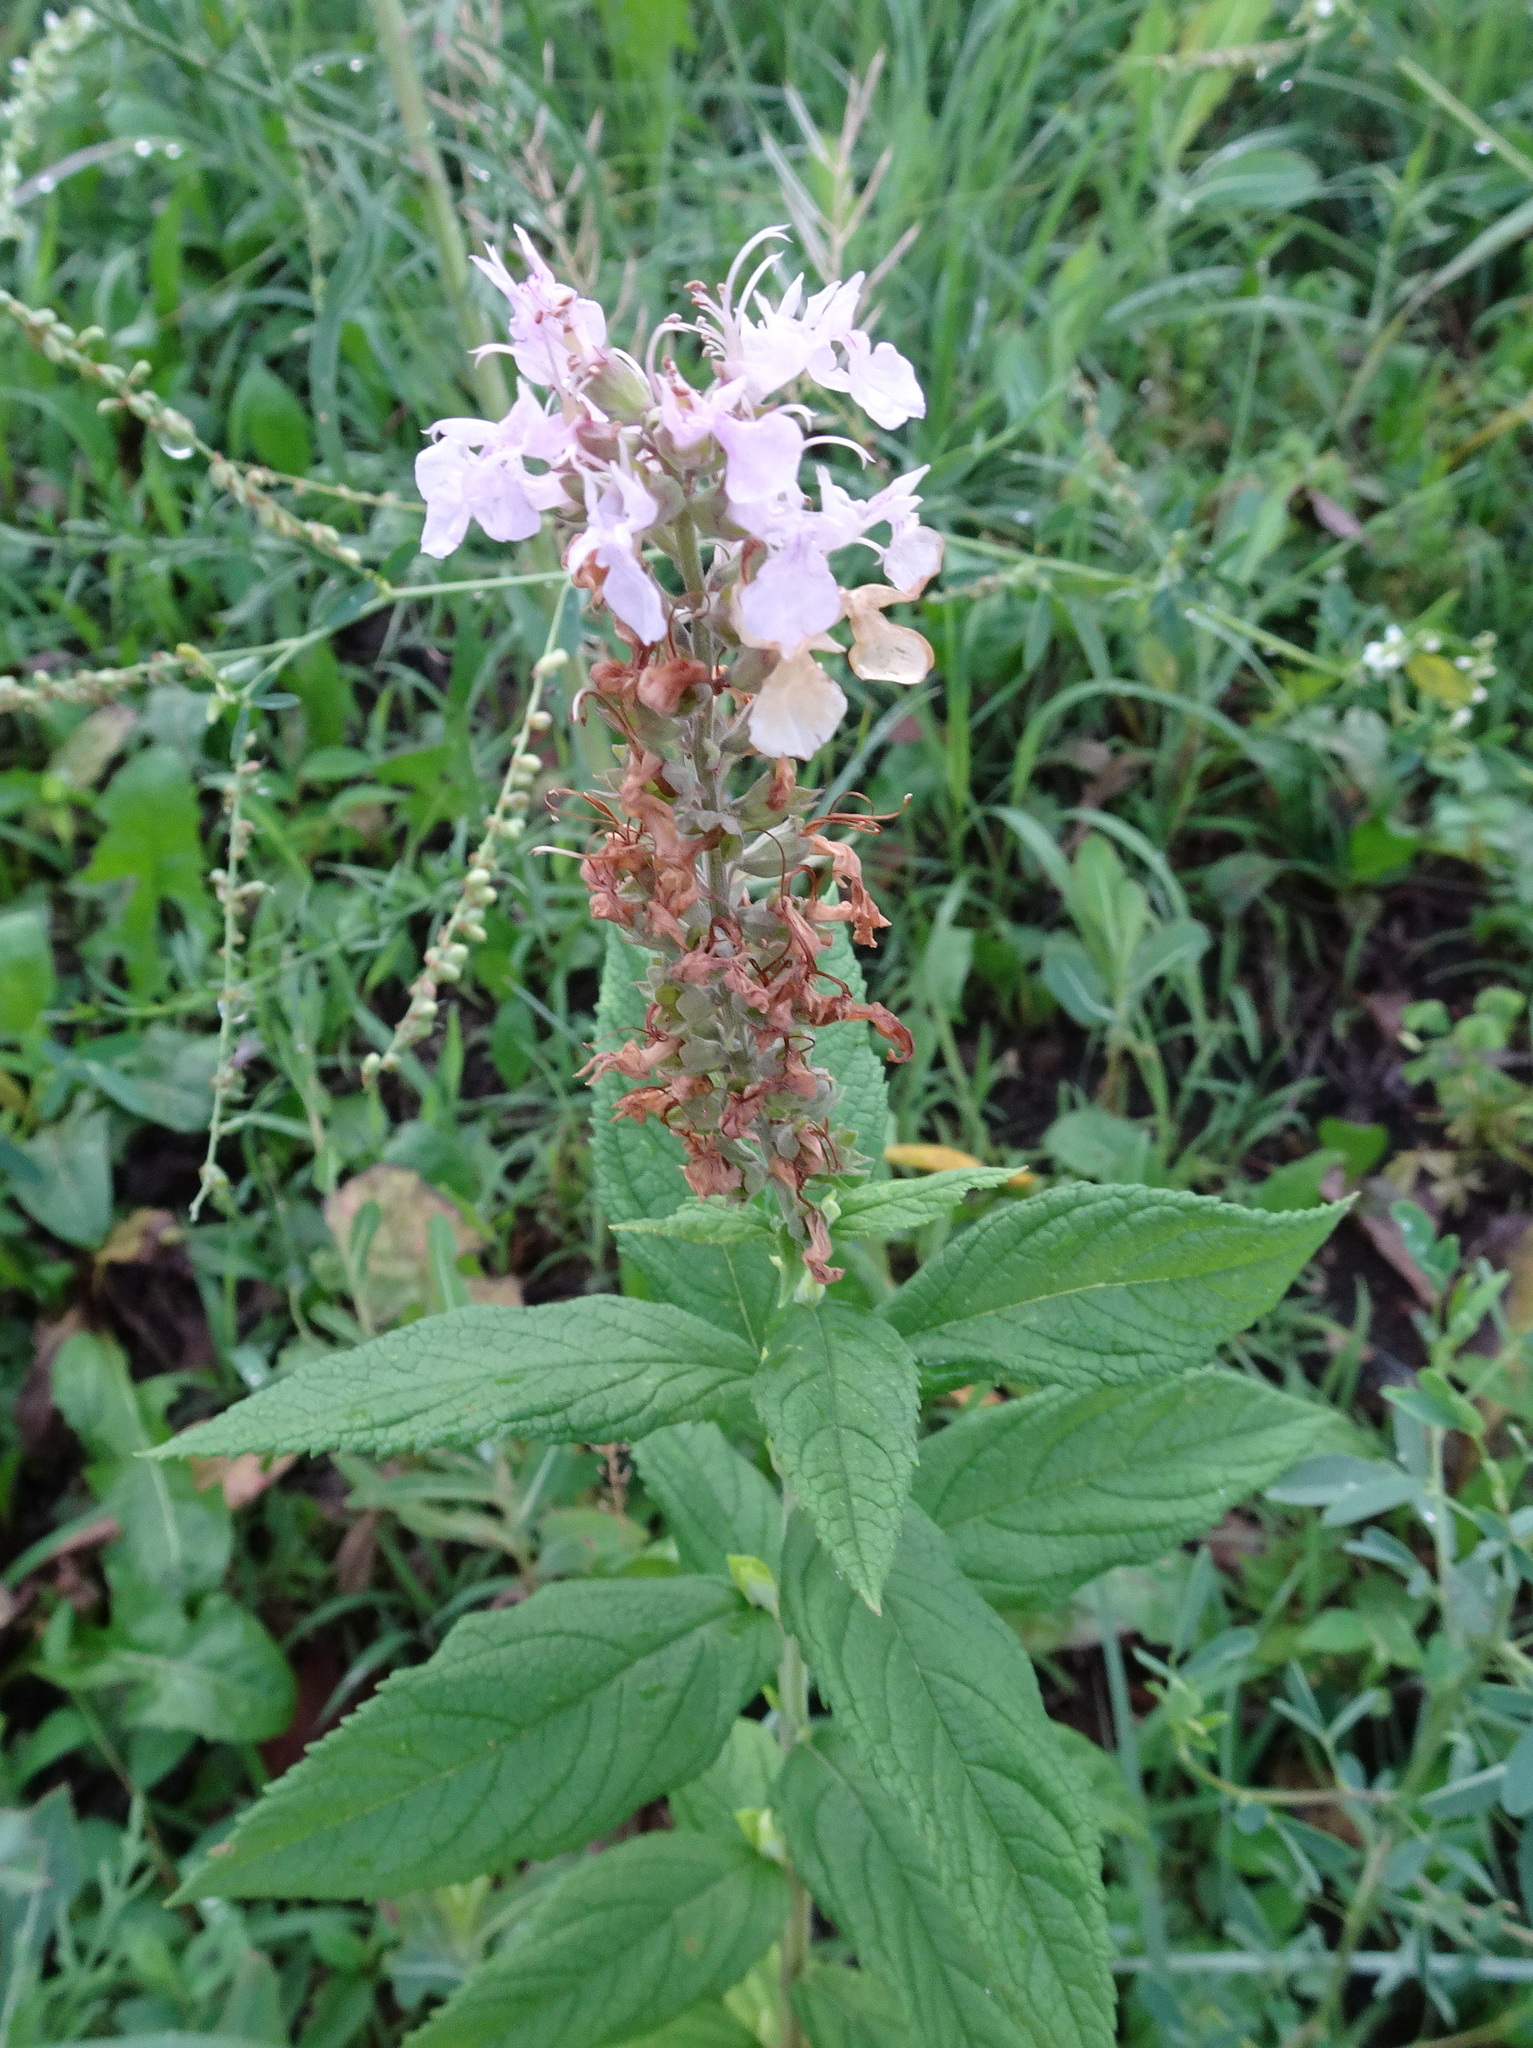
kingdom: Plantae
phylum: Tracheophyta
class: Magnoliopsida
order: Lamiales
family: Lamiaceae
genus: Teucrium
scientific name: Teucrium canadense
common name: American germander
